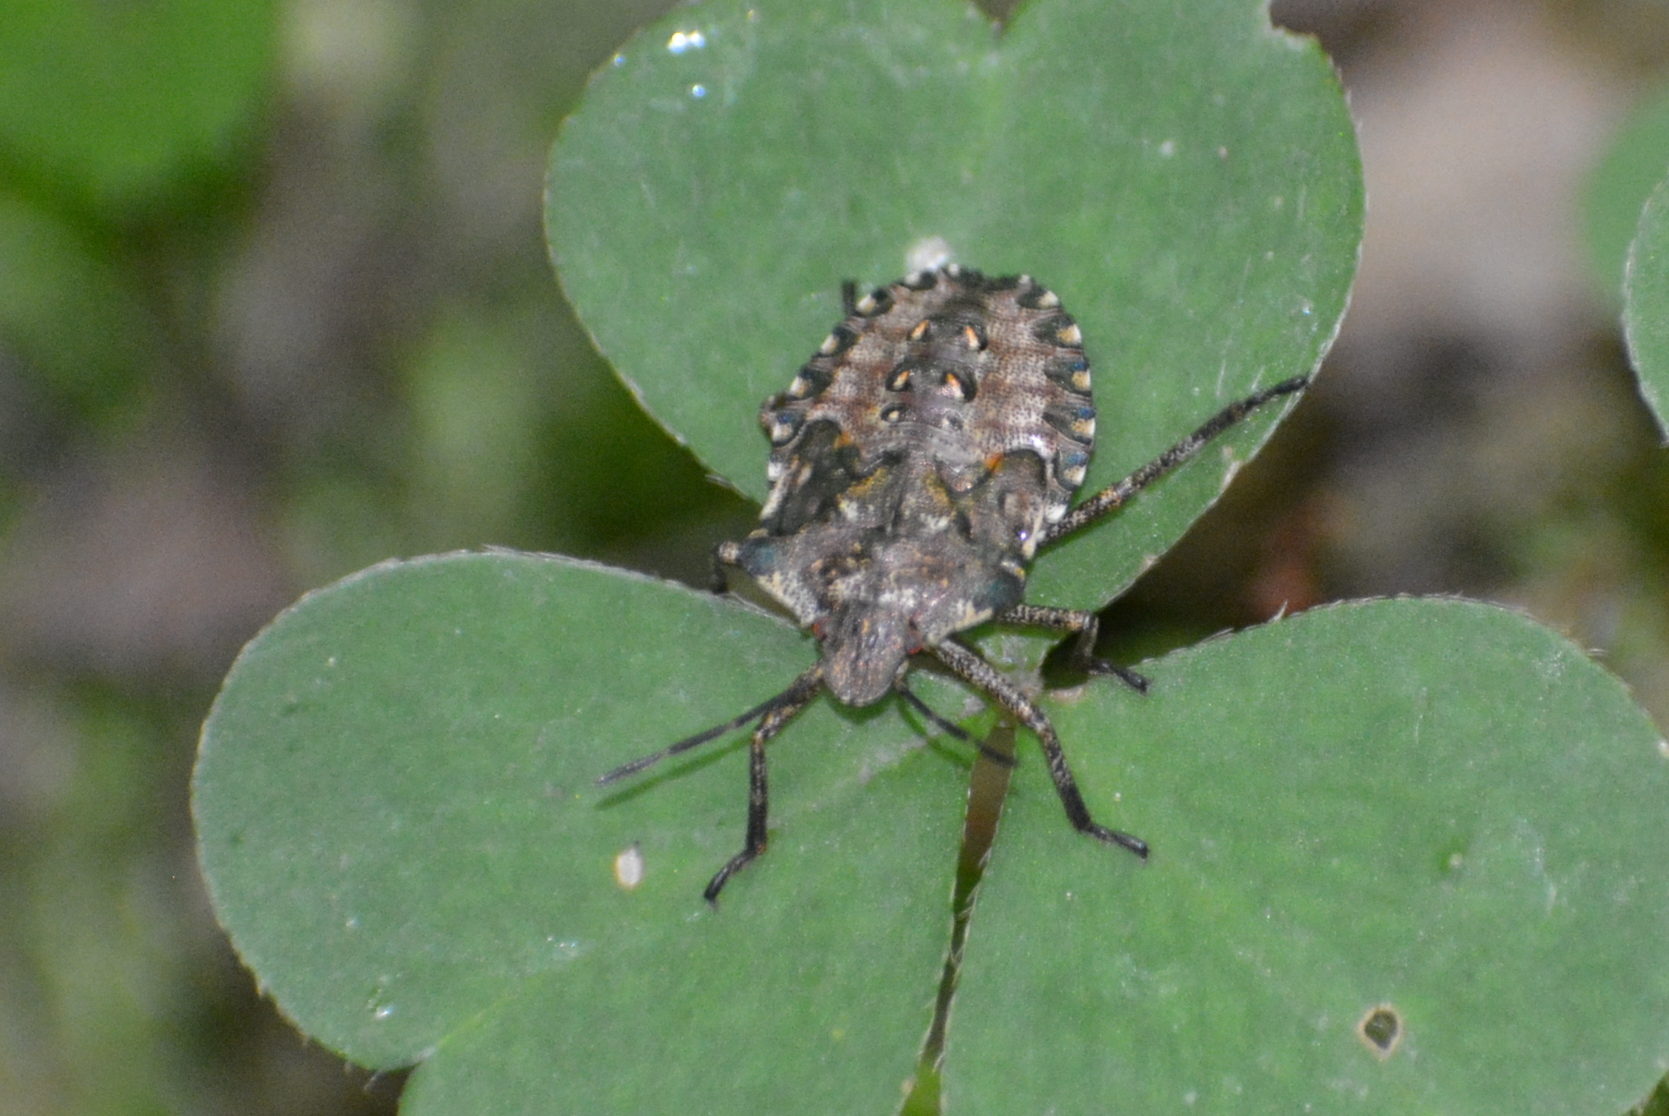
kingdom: Animalia
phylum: Arthropoda
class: Insecta
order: Hemiptera
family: Pentatomidae
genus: Pentatoma
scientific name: Pentatoma rufipes
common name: Forest bug
